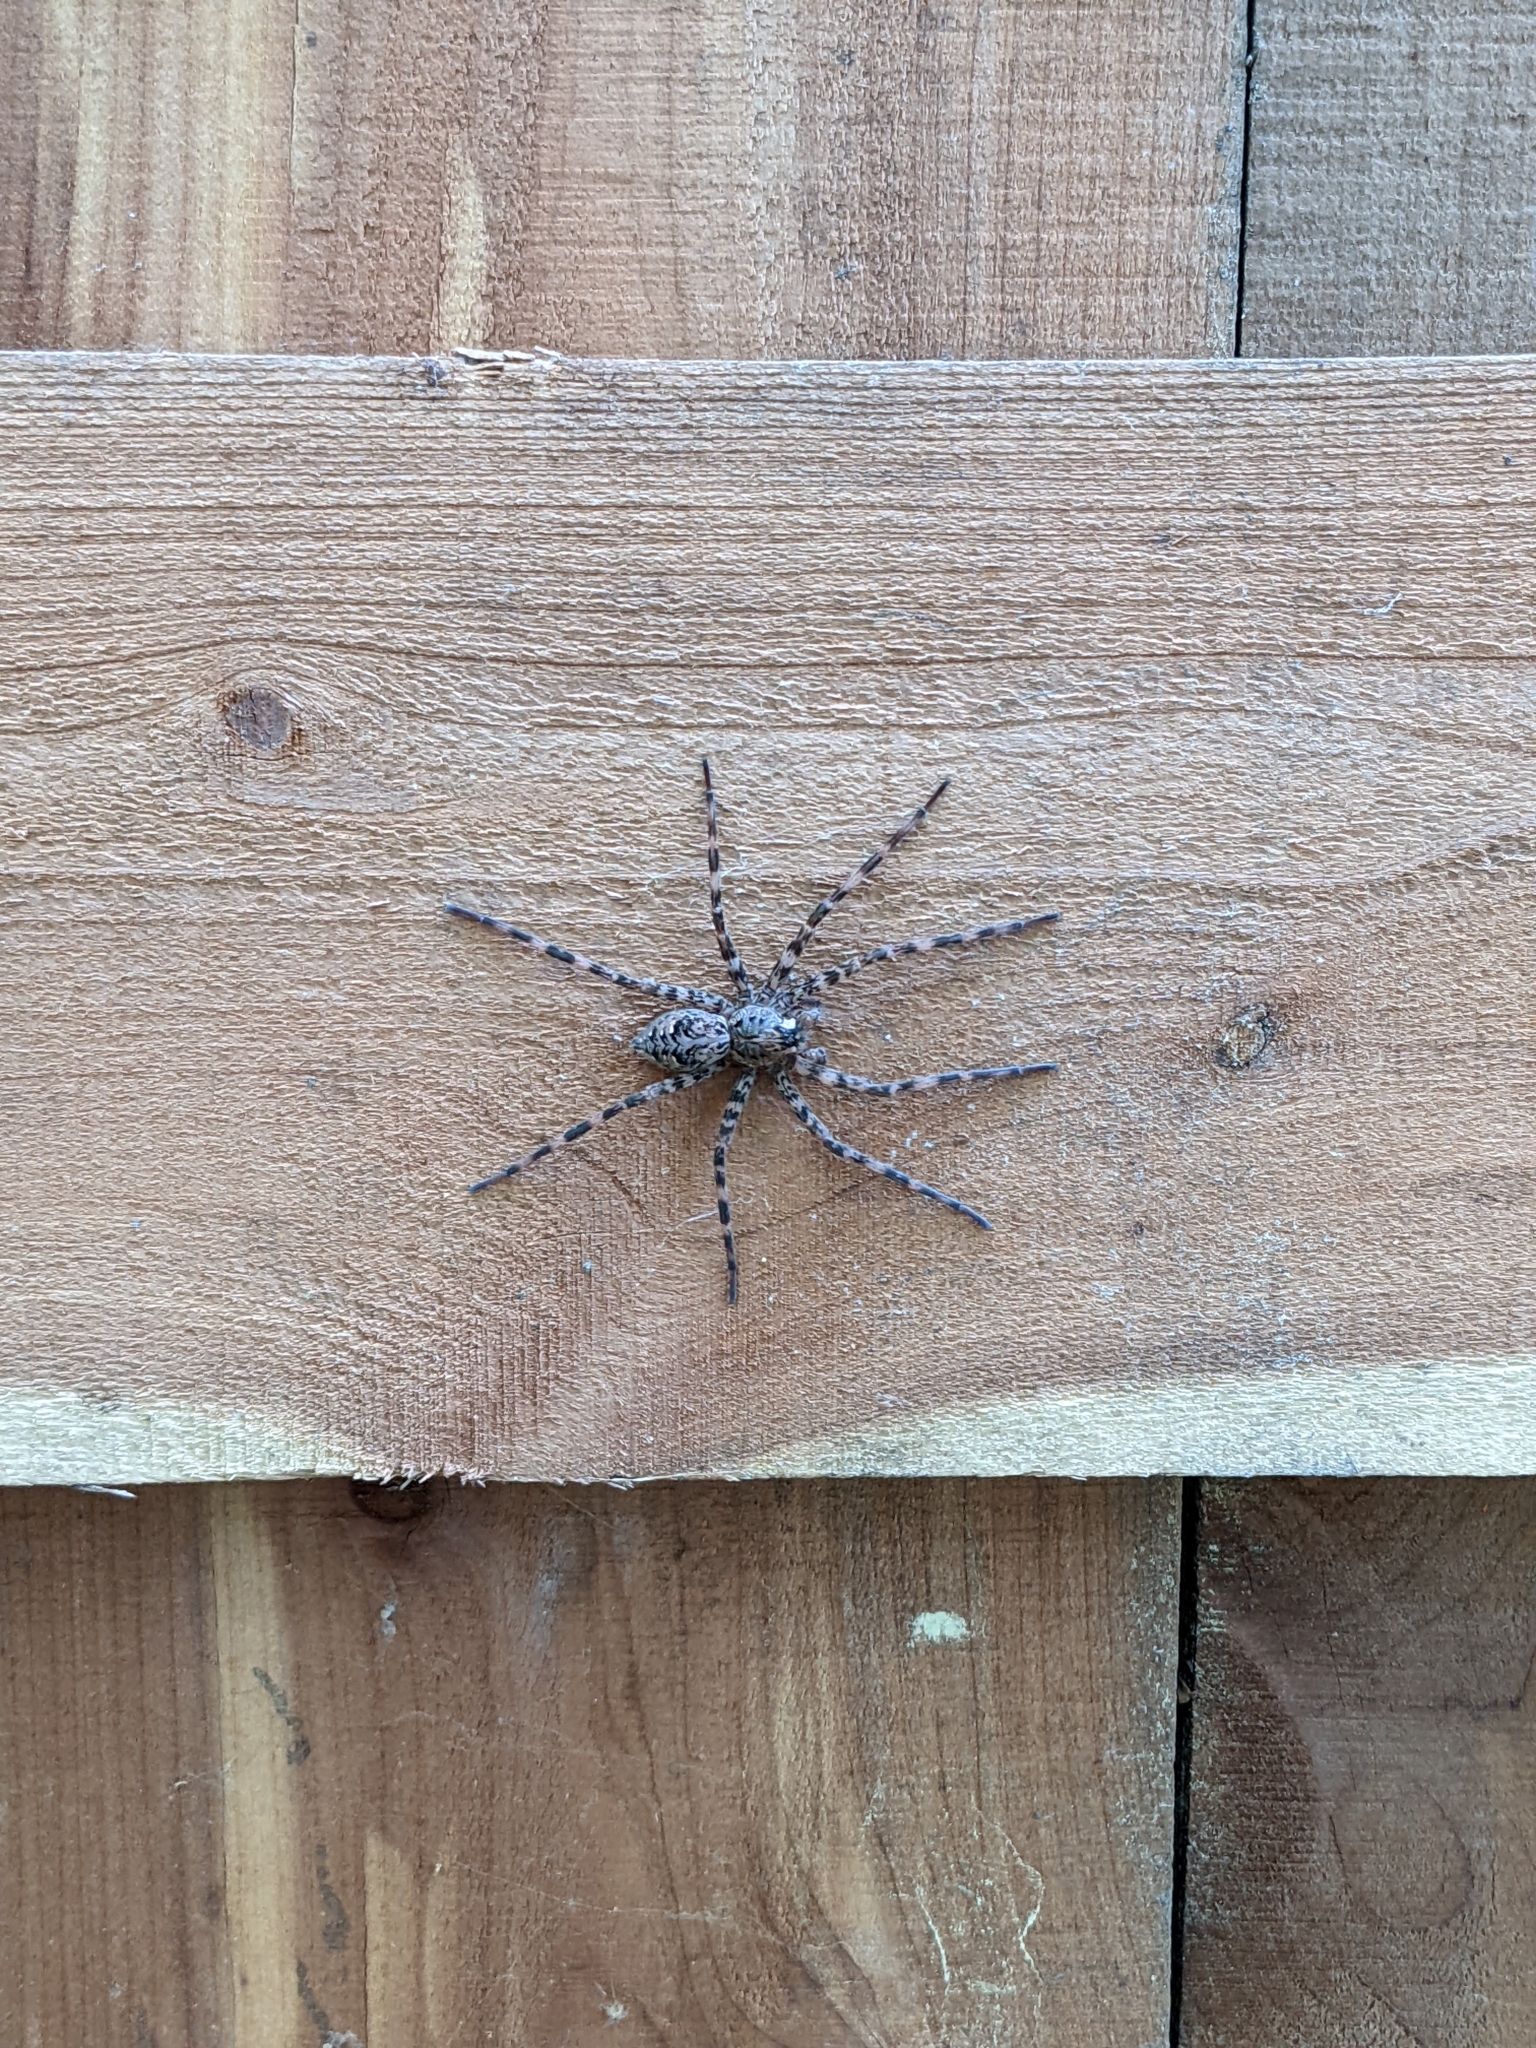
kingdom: Animalia
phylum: Arthropoda
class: Arachnida
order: Araneae
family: Pisauridae
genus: Dolomedes
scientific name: Dolomedes tenebrosus
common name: Dark fishing spider
